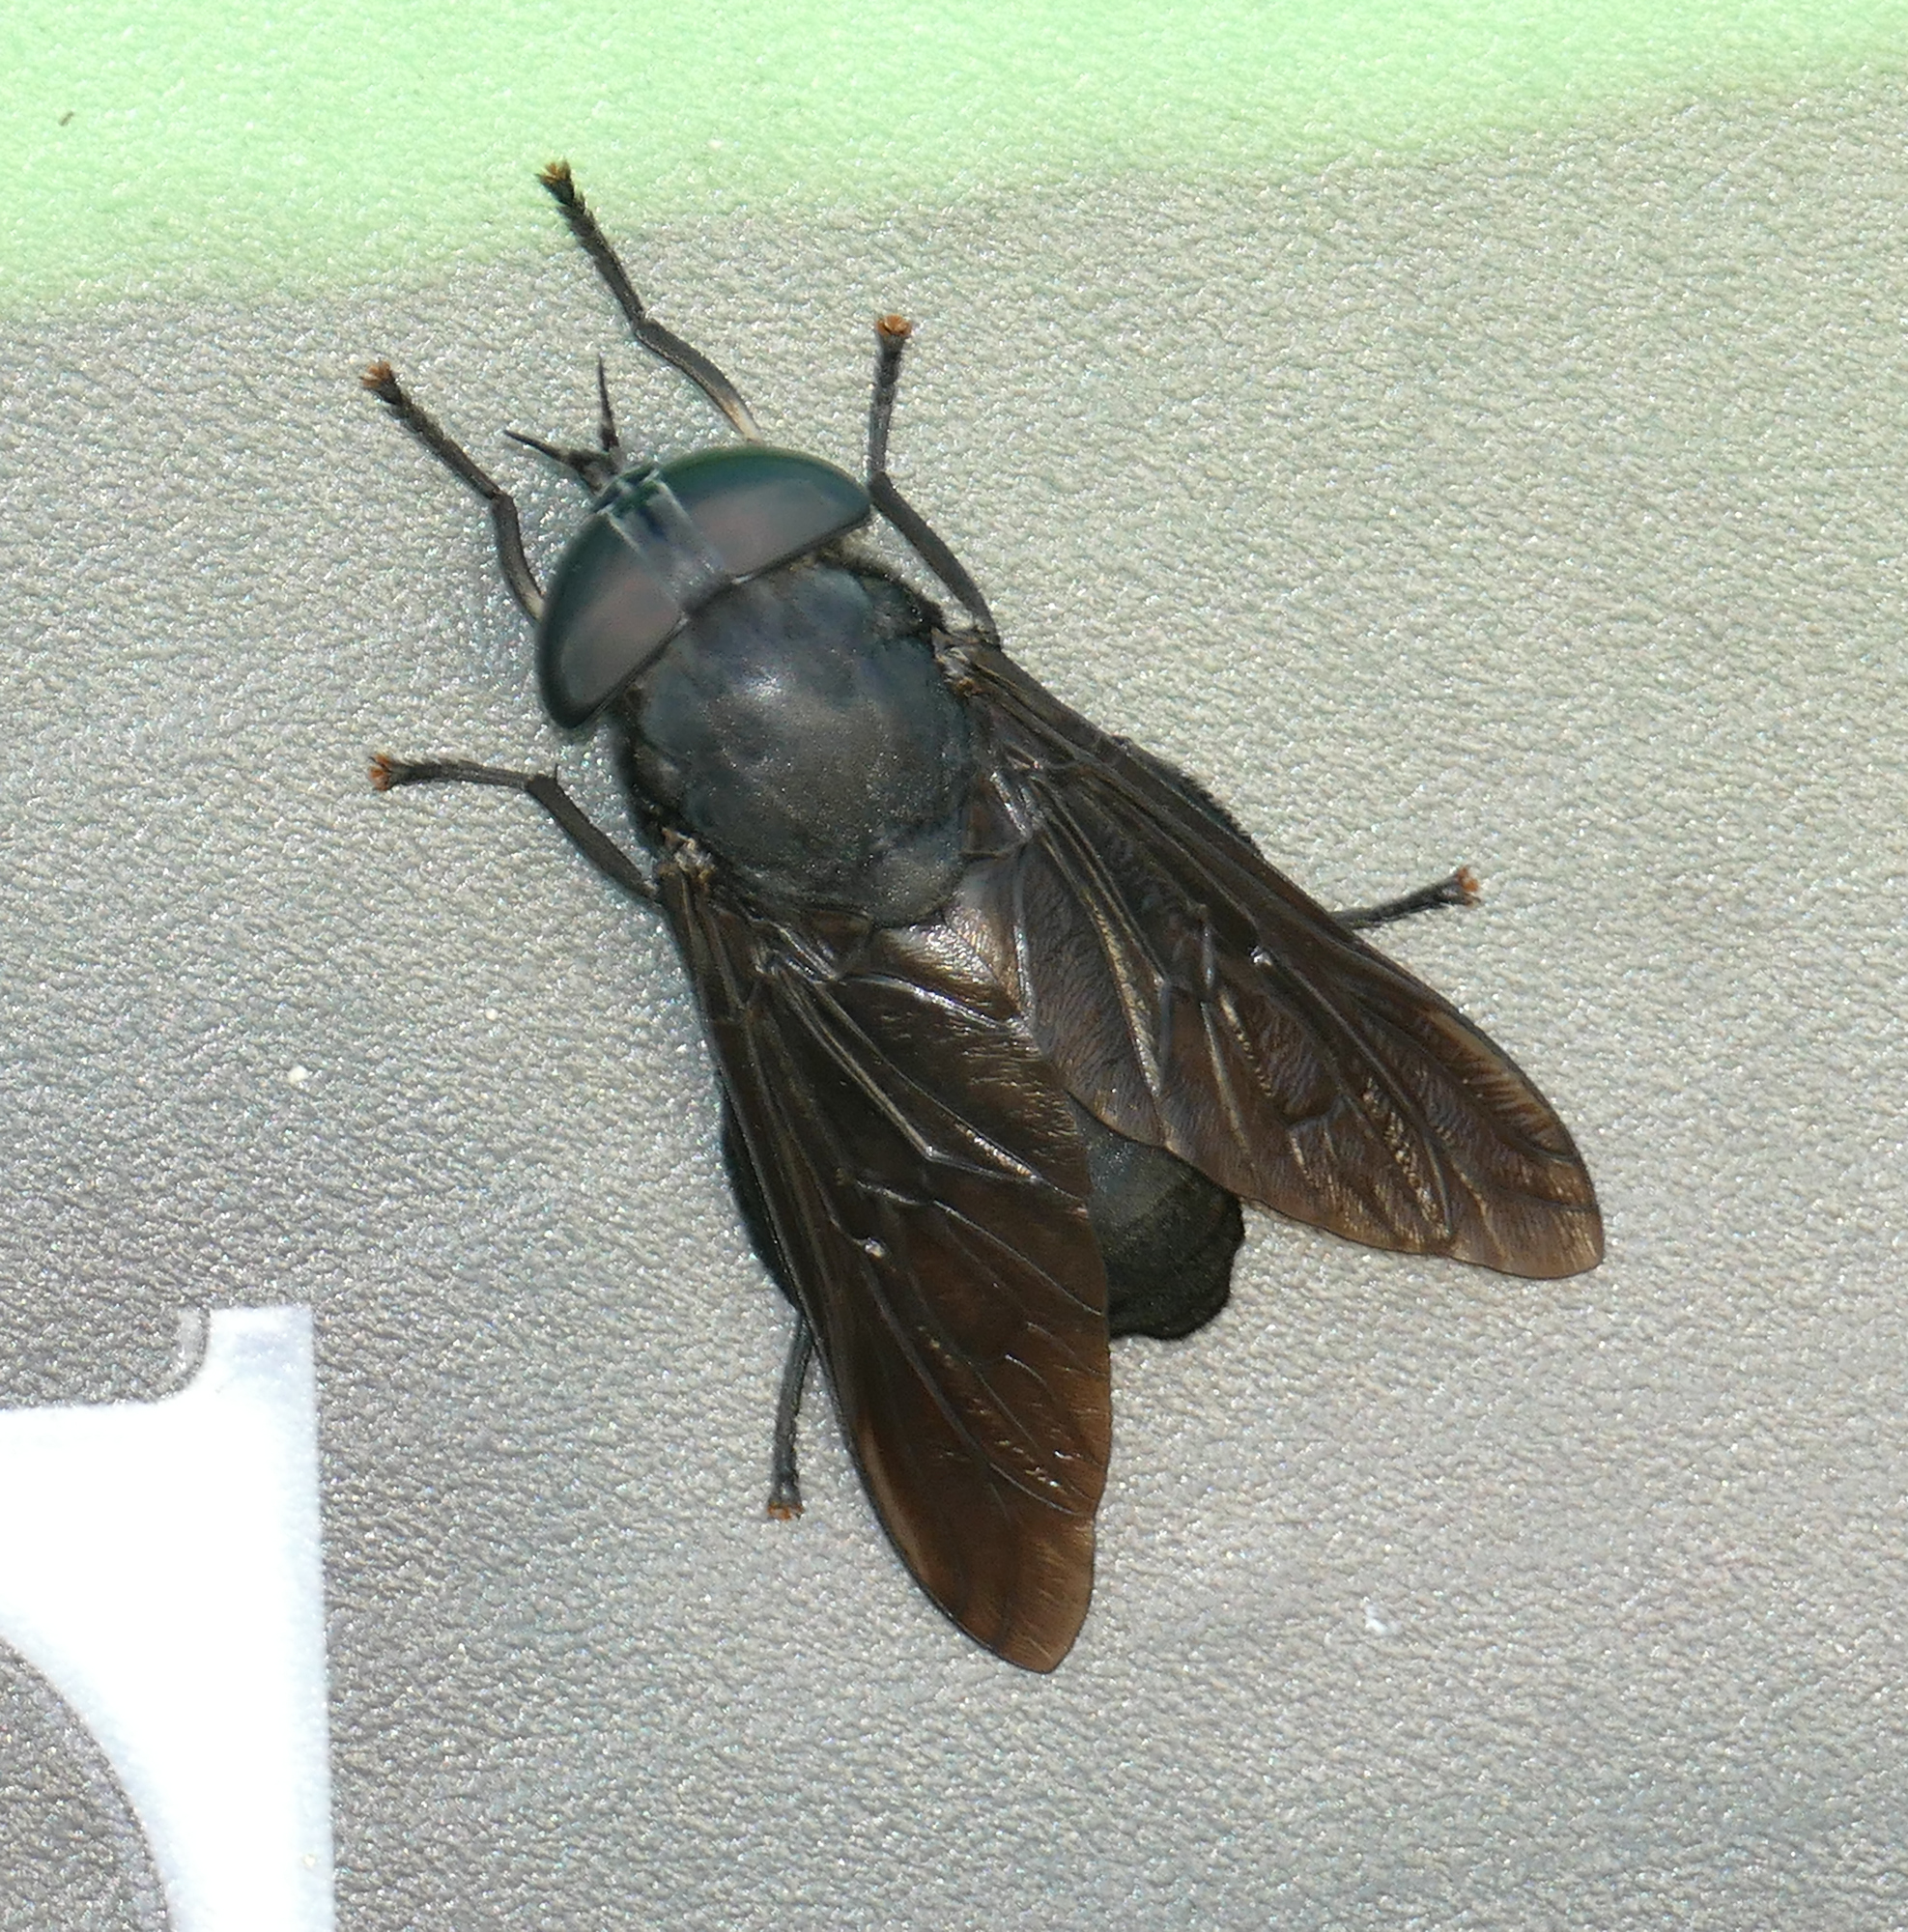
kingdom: Animalia
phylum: Arthropoda
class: Insecta
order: Diptera
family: Tabanidae
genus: Tabanus
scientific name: Tabanus atratus
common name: Black horse fly
